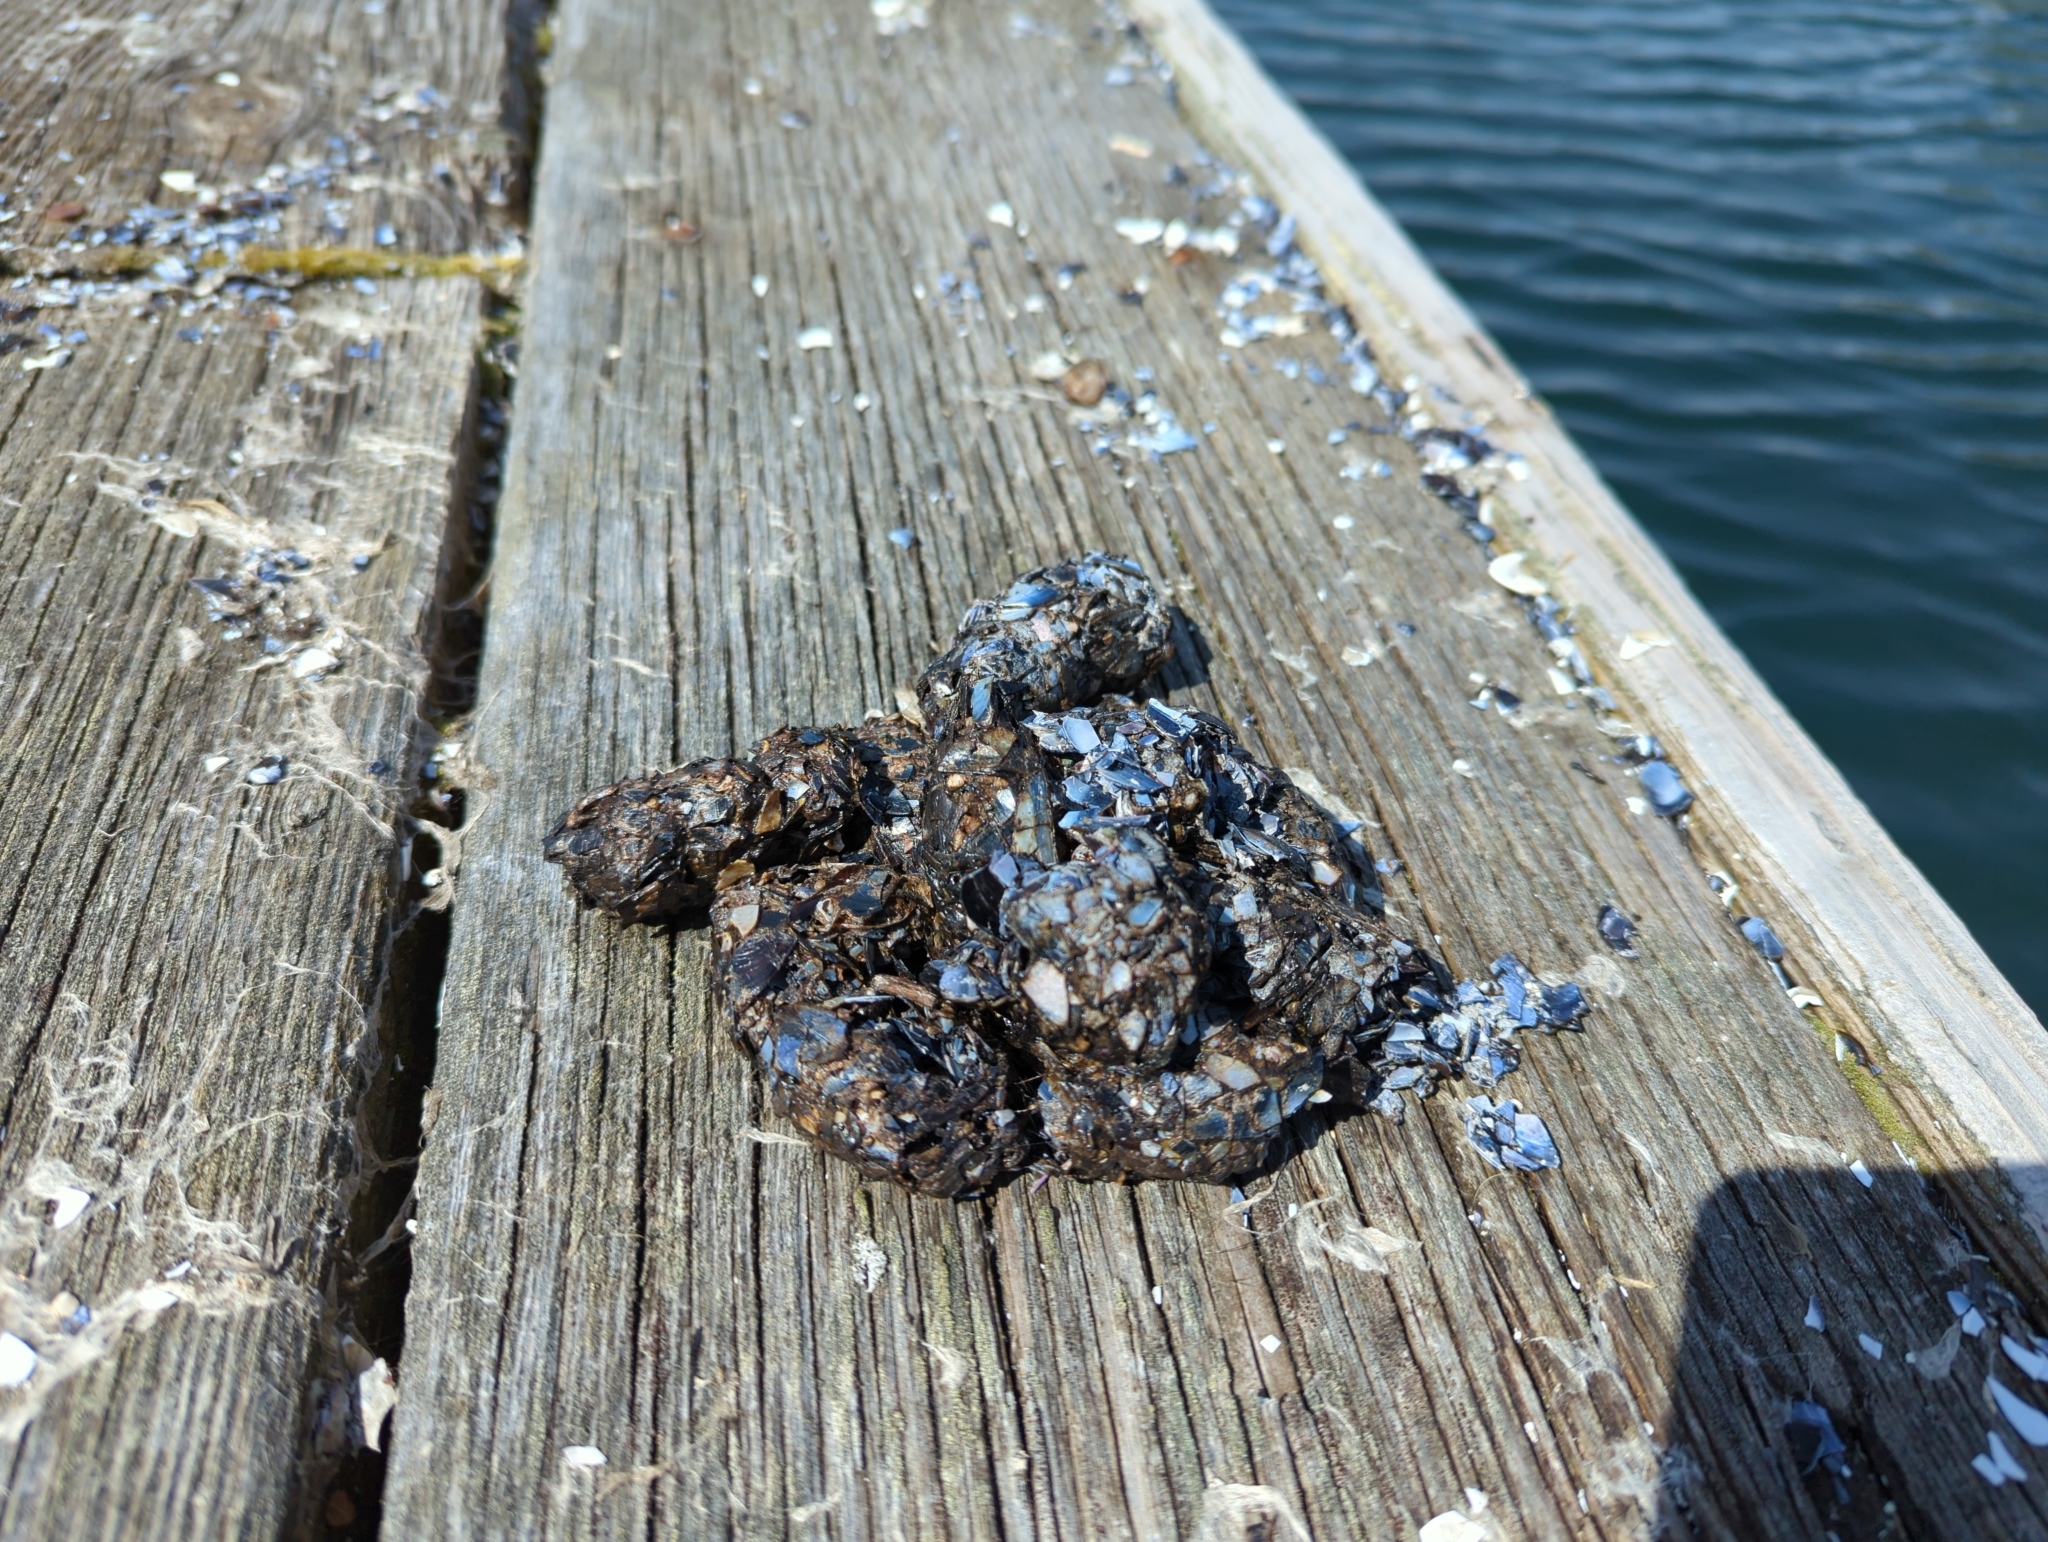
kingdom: Animalia
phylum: Chordata
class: Mammalia
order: Carnivora
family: Mustelidae
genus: Enhydra
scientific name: Enhydra lutris
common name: Sea otter
